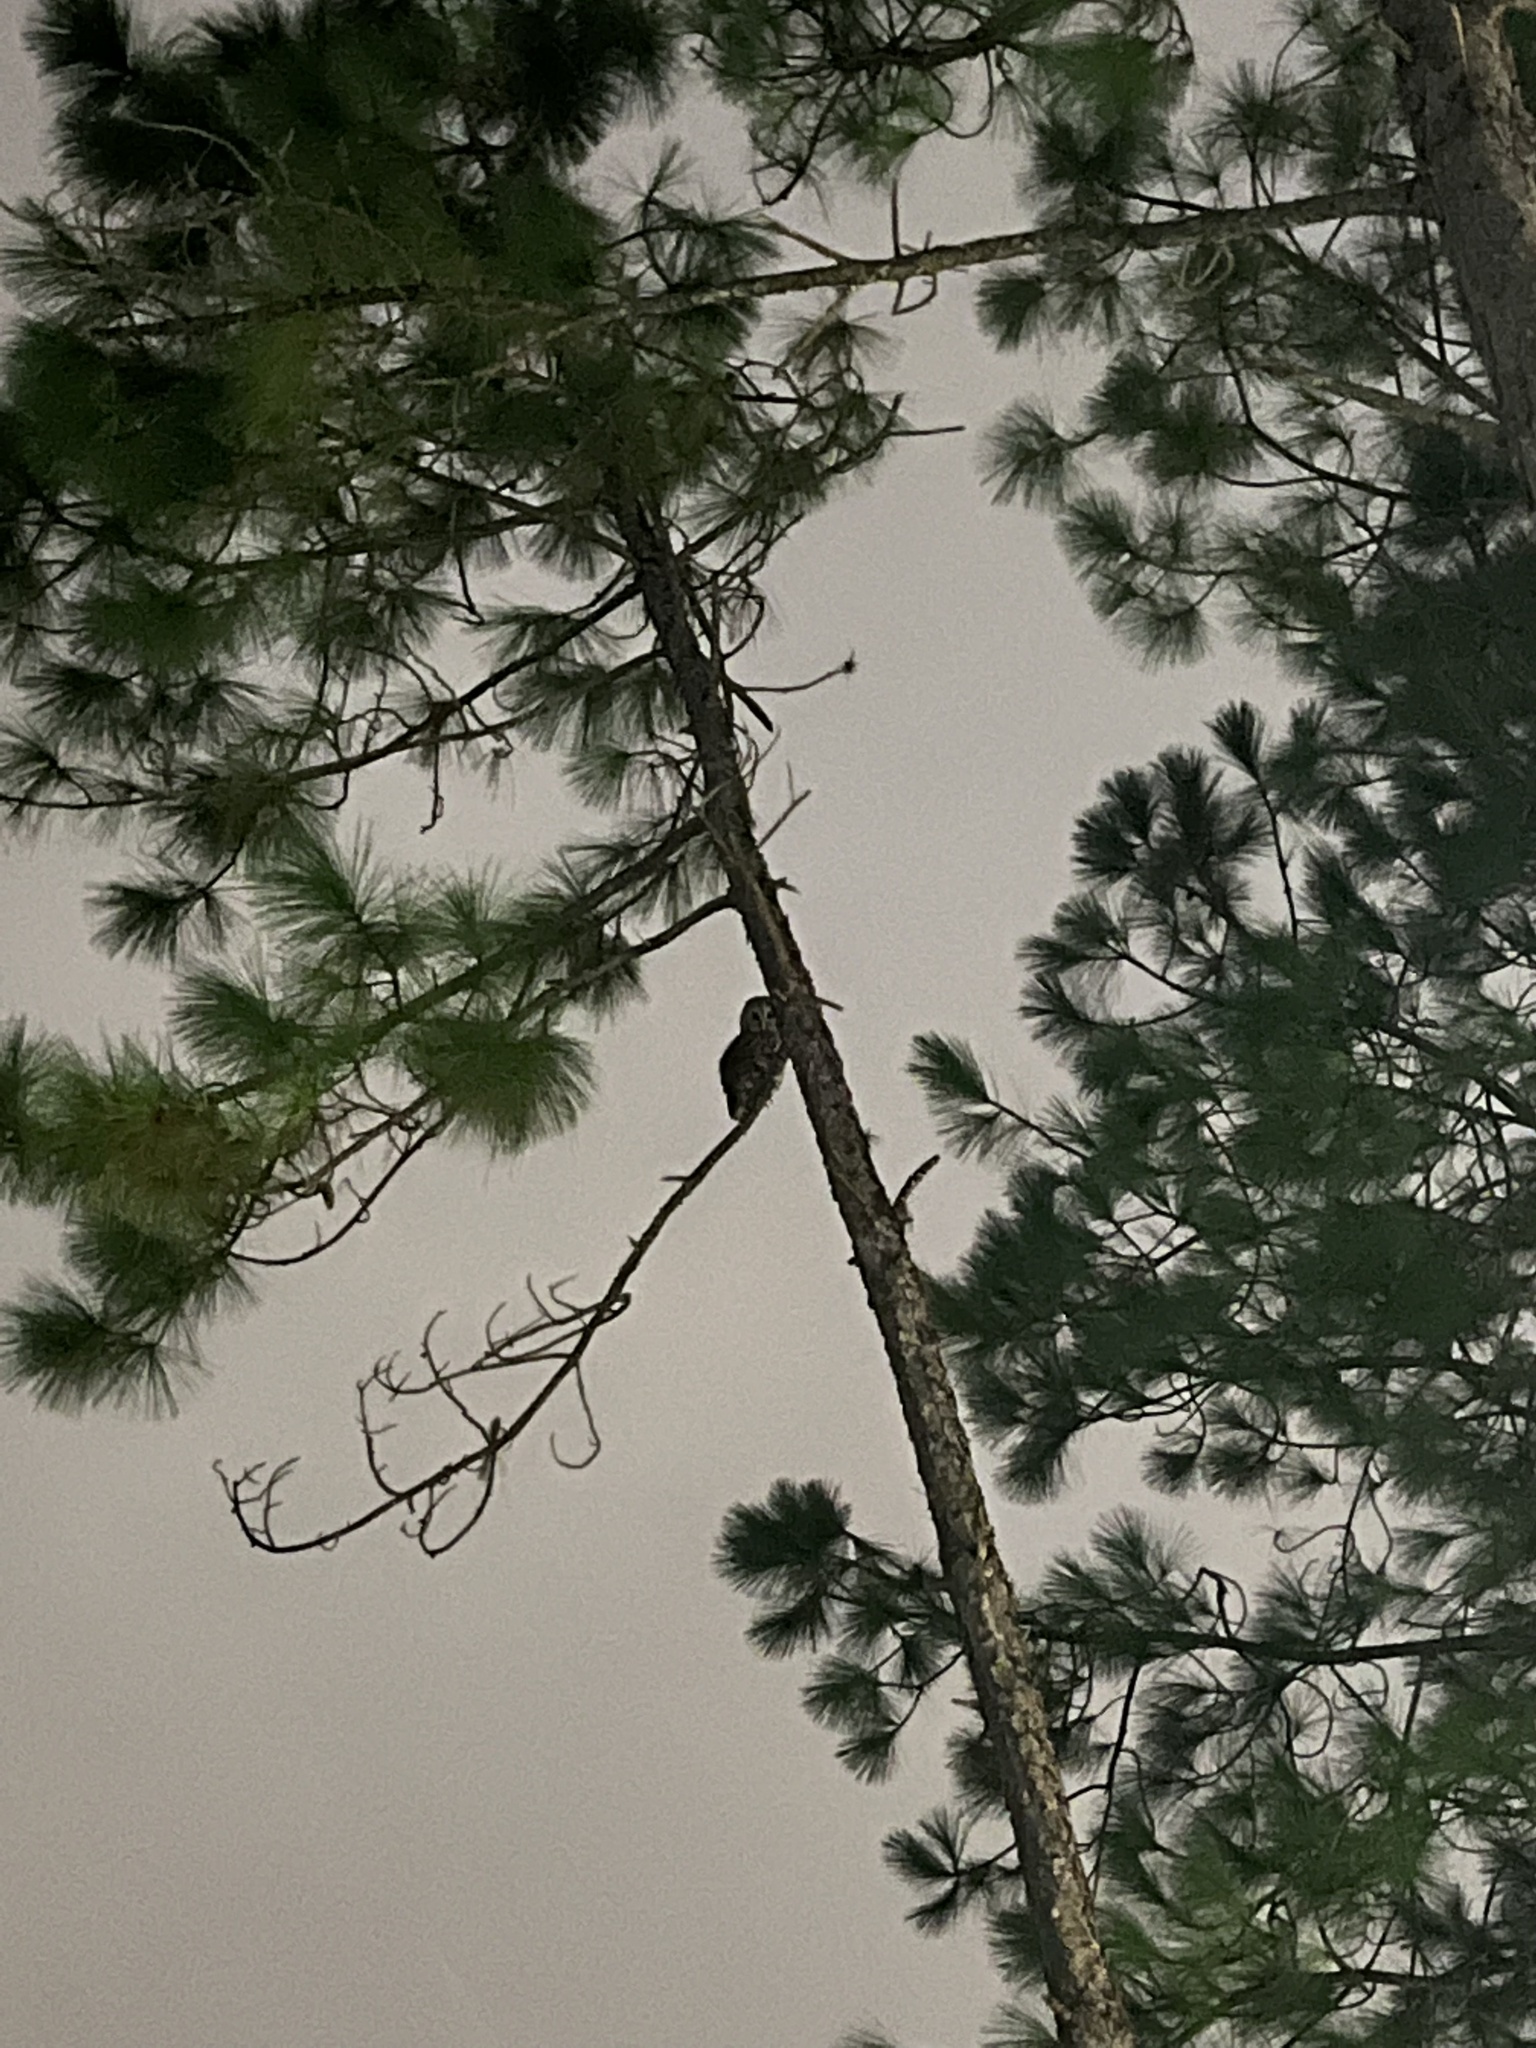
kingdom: Animalia
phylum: Chordata
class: Aves
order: Strigiformes
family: Strigidae
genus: Strix
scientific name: Strix varia
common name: Barred owl
